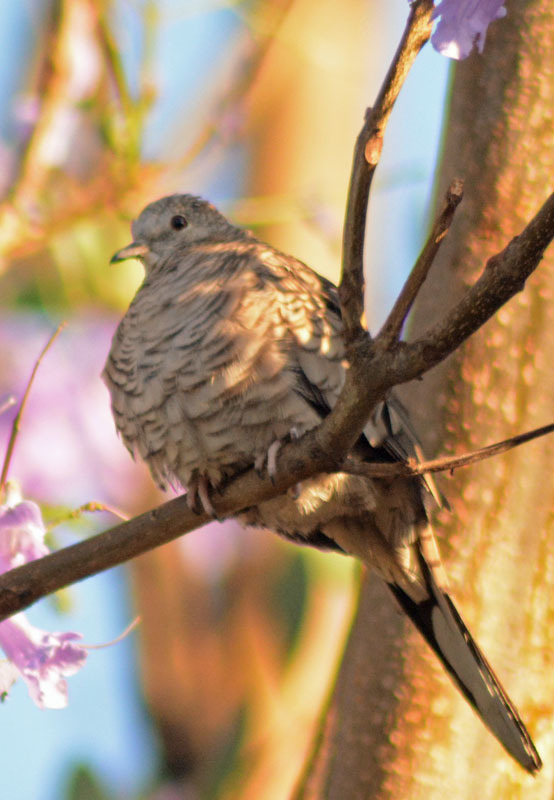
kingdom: Animalia
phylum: Chordata
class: Aves
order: Columbiformes
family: Columbidae
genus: Columbina
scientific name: Columbina inca
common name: Inca dove
